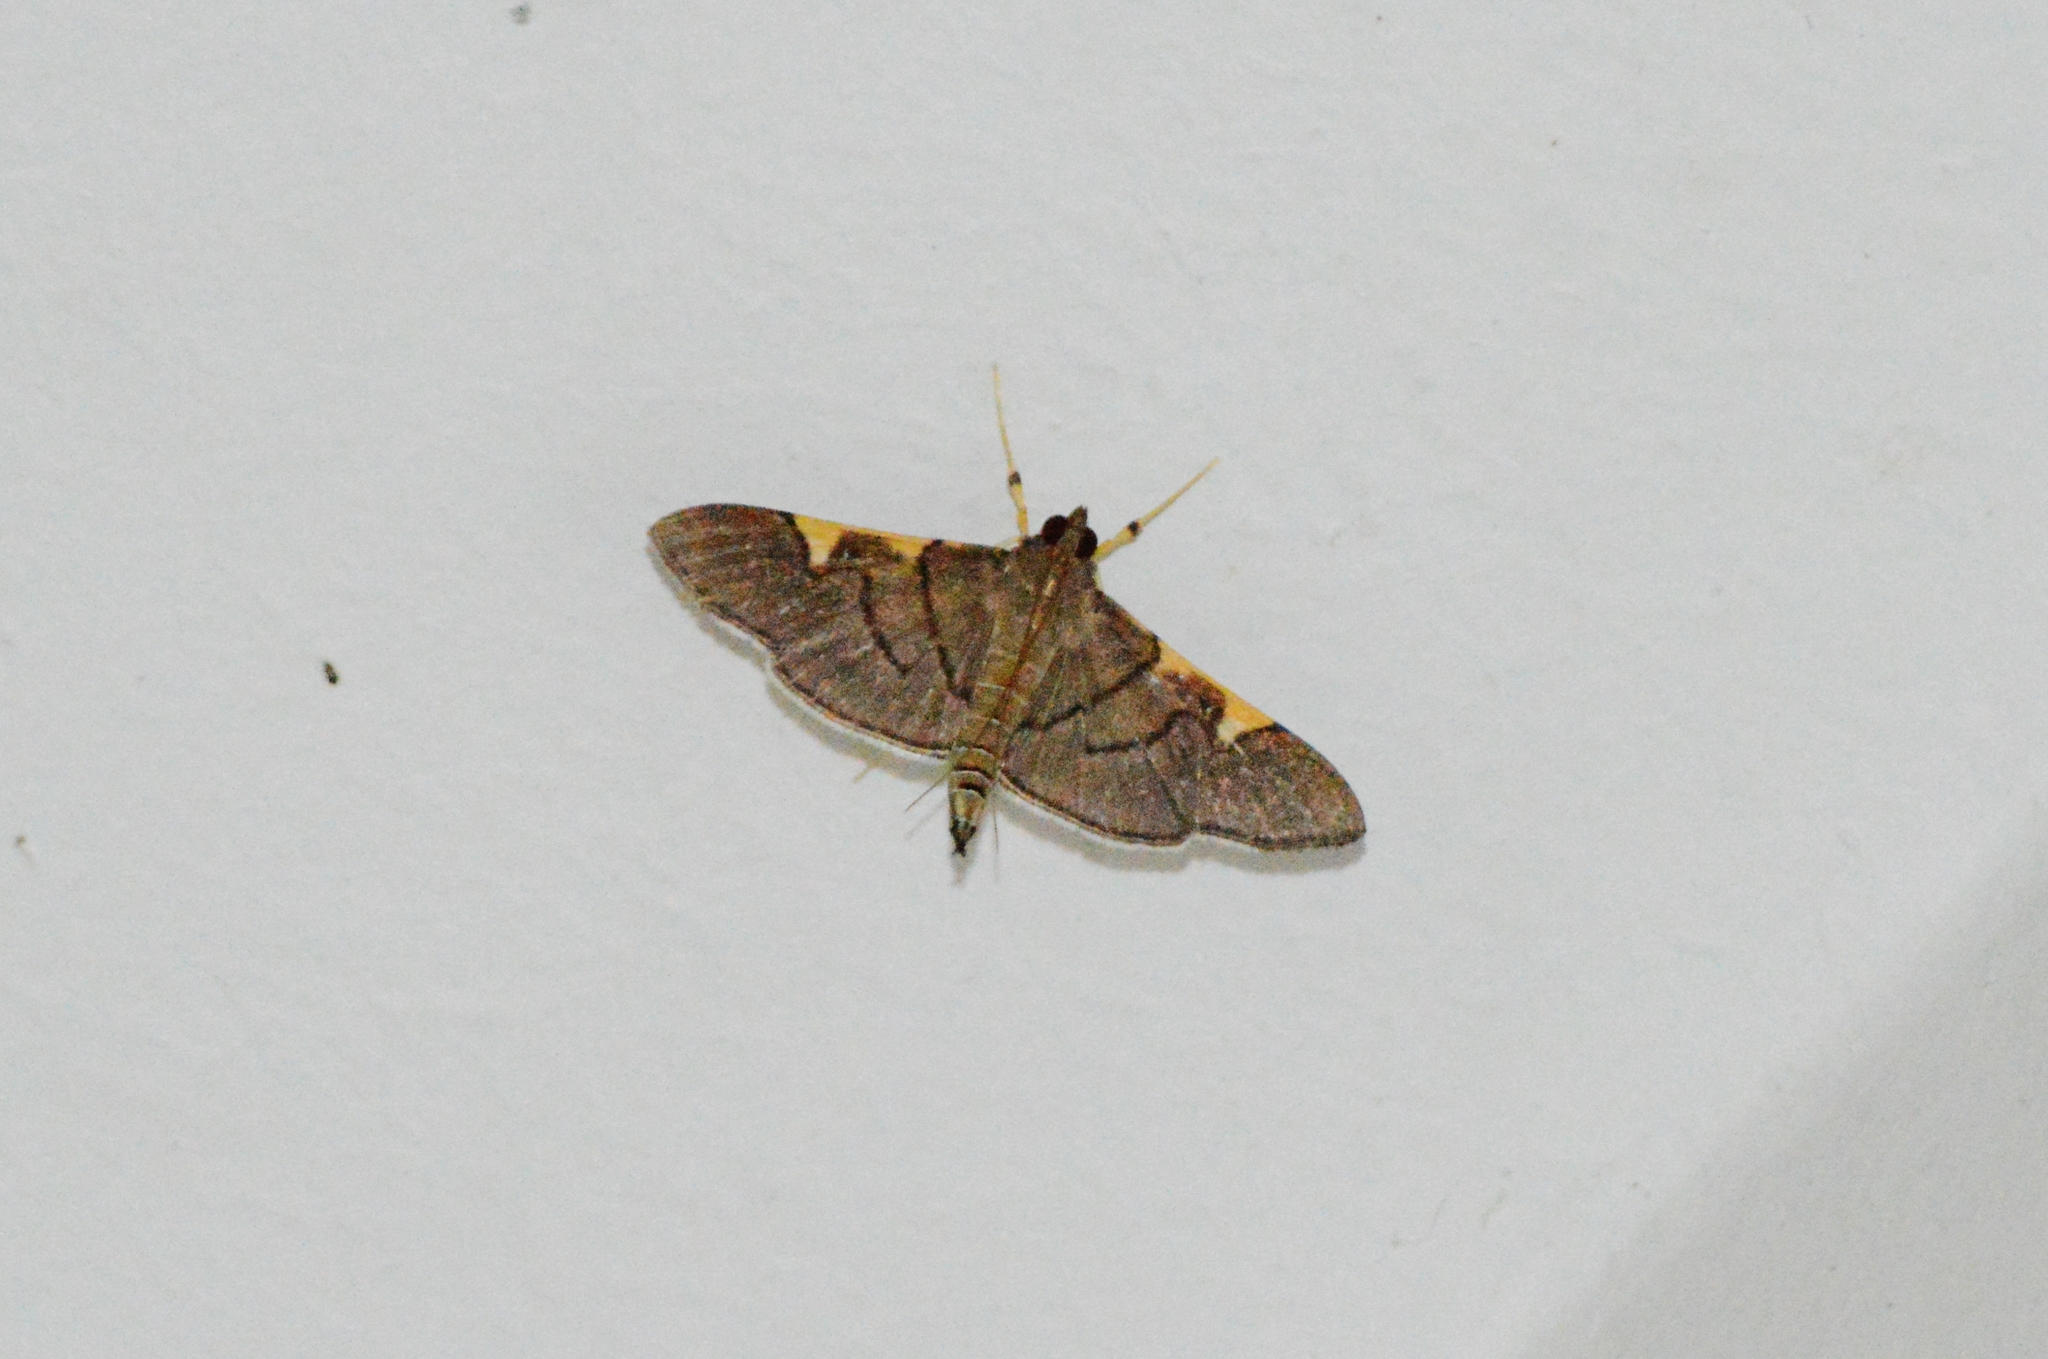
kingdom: Animalia
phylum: Arthropoda
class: Insecta
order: Lepidoptera
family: Crambidae
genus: Omiodes
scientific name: Omiodes simialis
